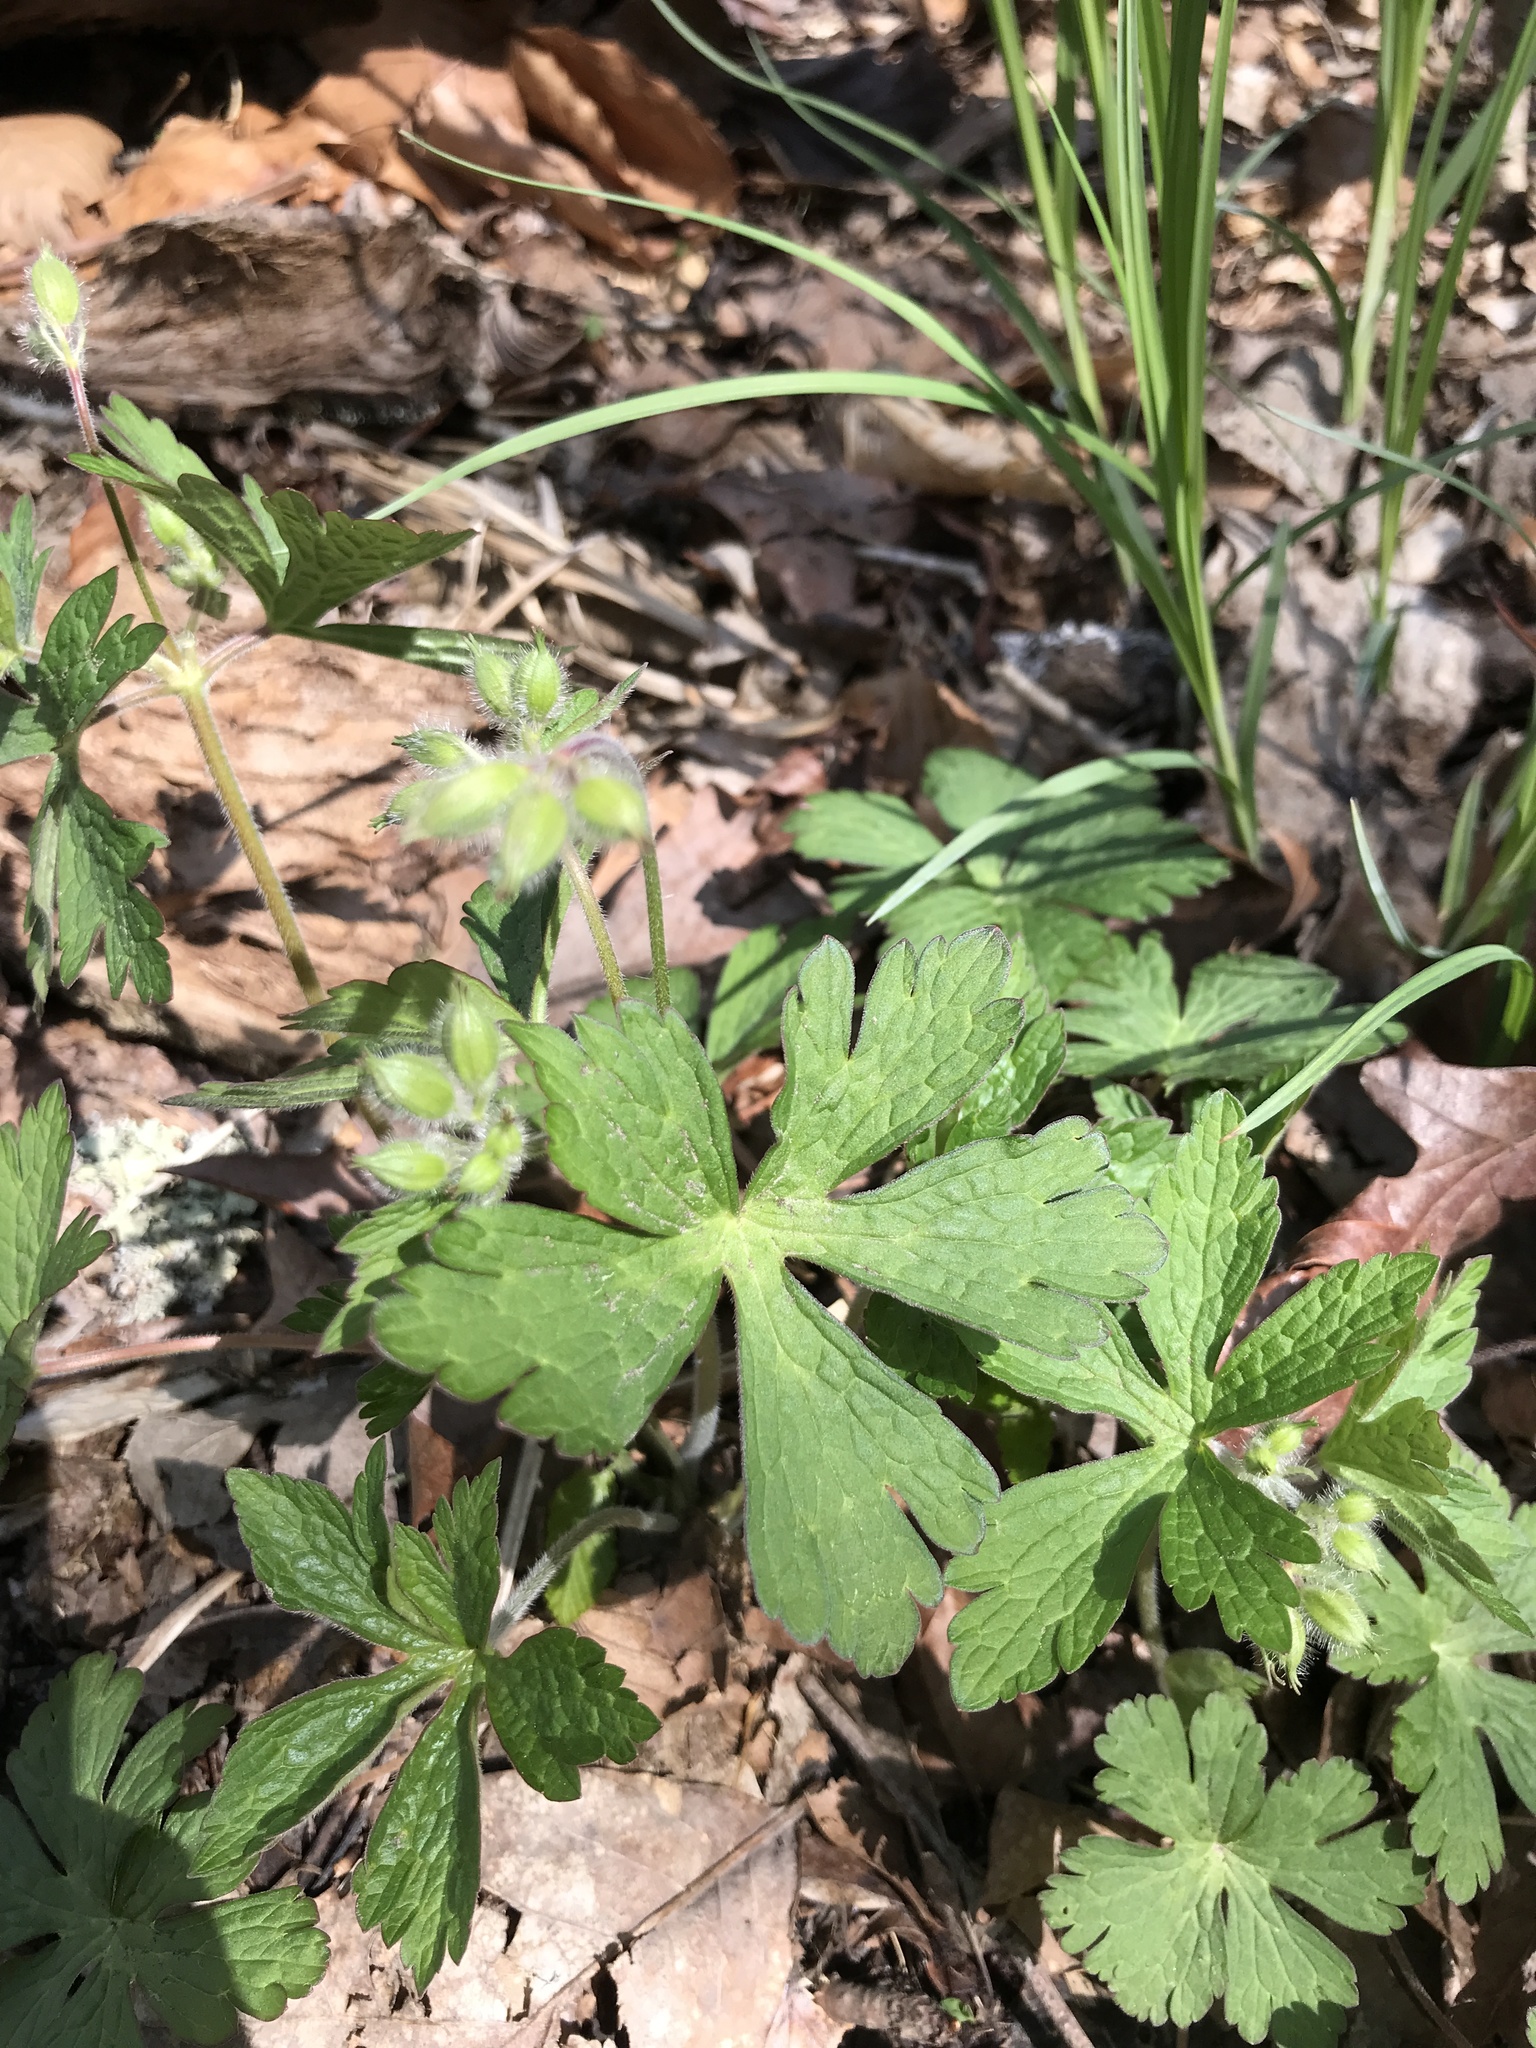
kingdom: Plantae
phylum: Tracheophyta
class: Magnoliopsida
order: Geraniales
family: Geraniaceae
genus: Geranium
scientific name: Geranium maculatum
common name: Spotted geranium
